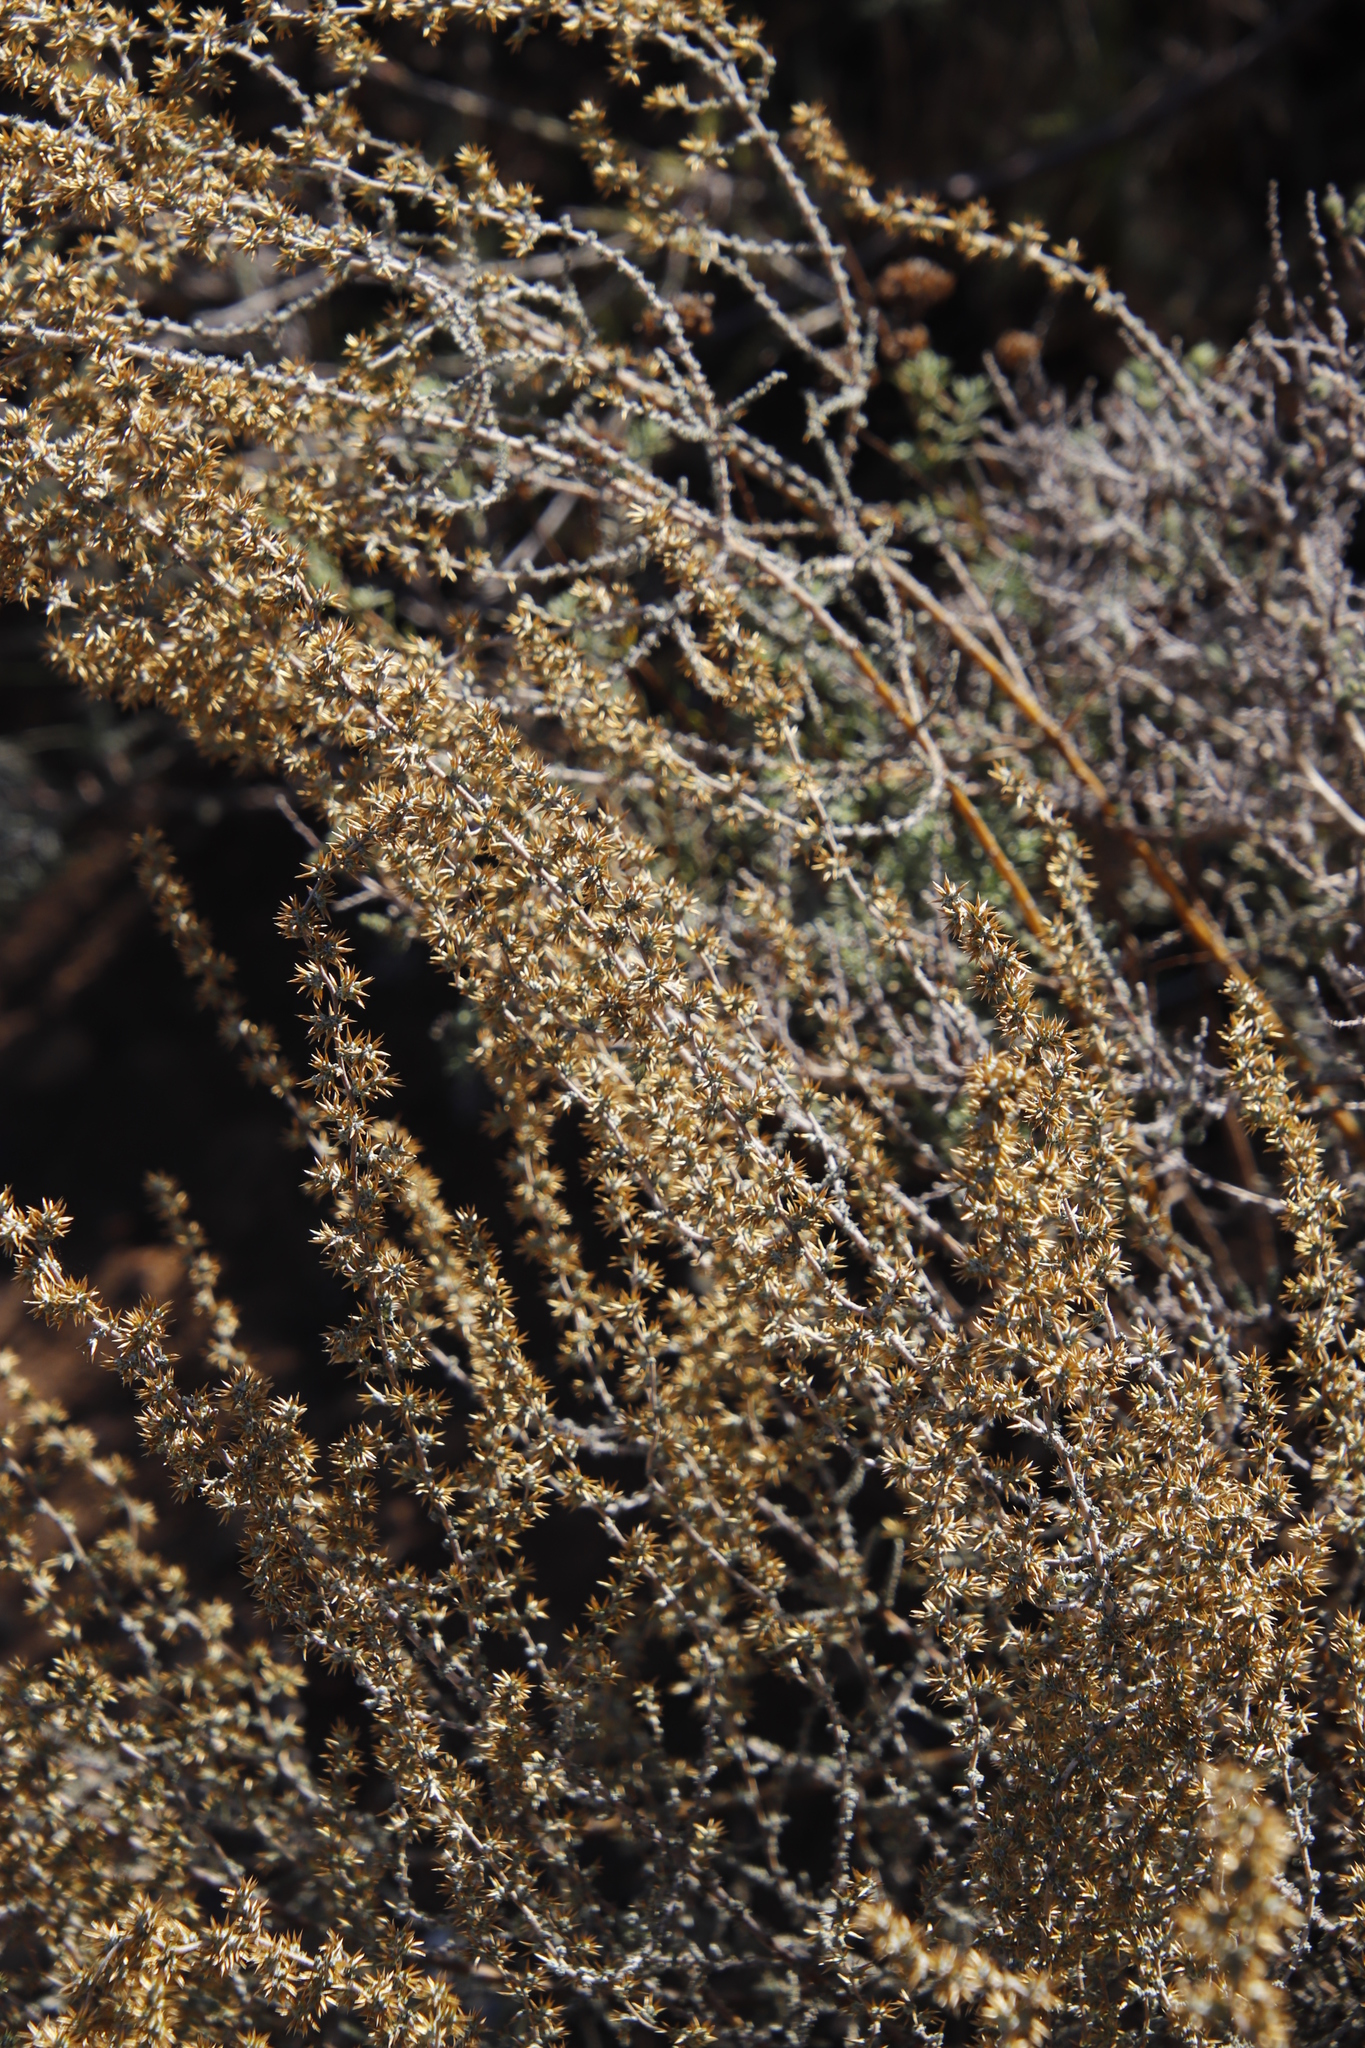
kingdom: Plantae
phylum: Tracheophyta
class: Magnoliopsida
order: Asterales
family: Asteraceae
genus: Seriphium
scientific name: Seriphium plumosum
